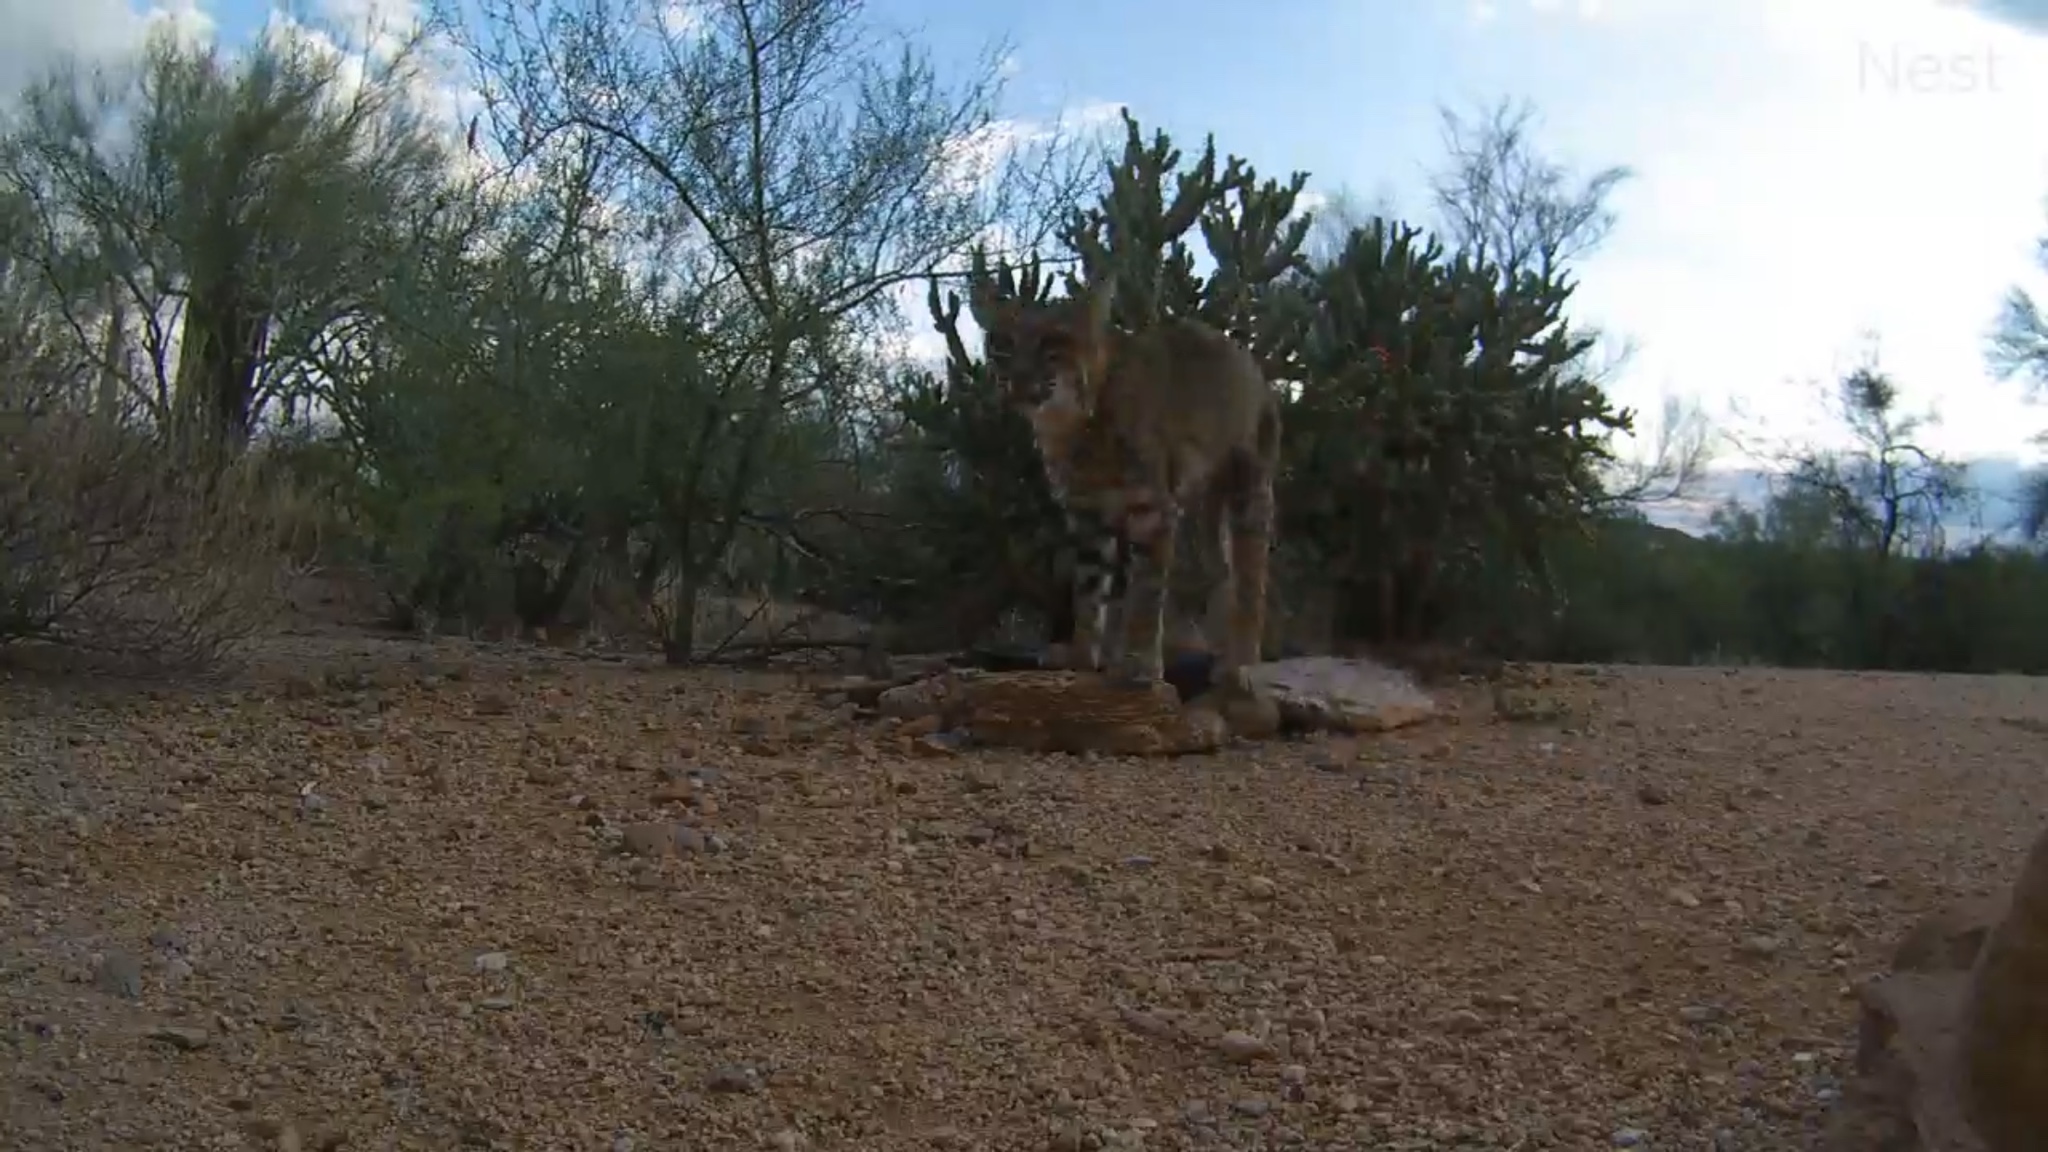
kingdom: Animalia
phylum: Chordata
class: Mammalia
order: Carnivora
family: Felidae
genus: Lynx
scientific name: Lynx rufus
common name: Bobcat
